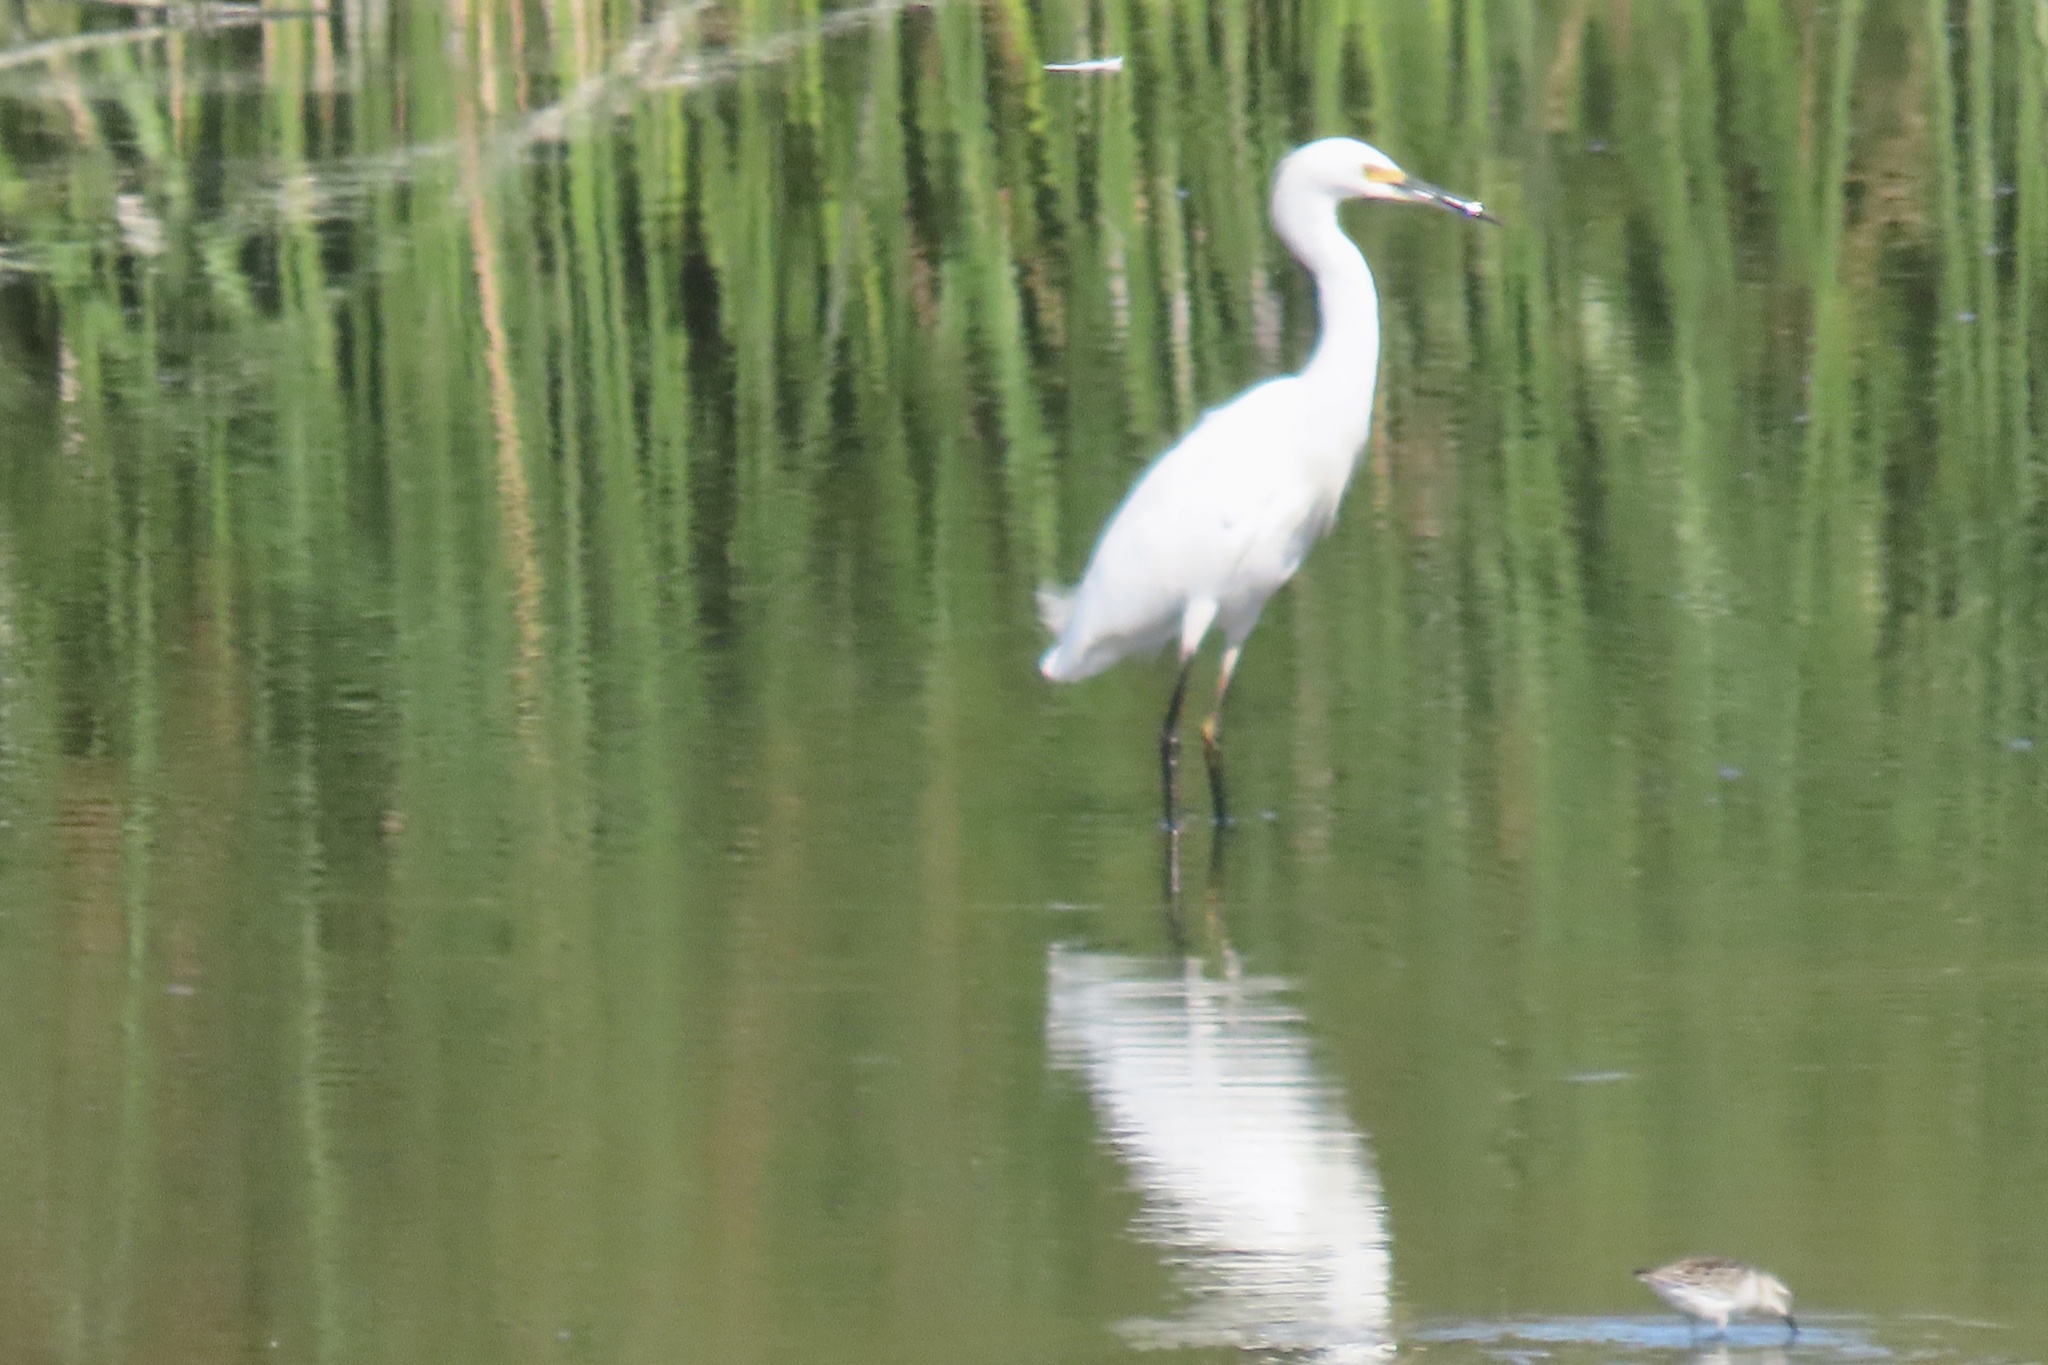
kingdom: Animalia
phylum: Chordata
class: Aves
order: Pelecaniformes
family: Ardeidae
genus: Egretta
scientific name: Egretta thula
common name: Snowy egret
